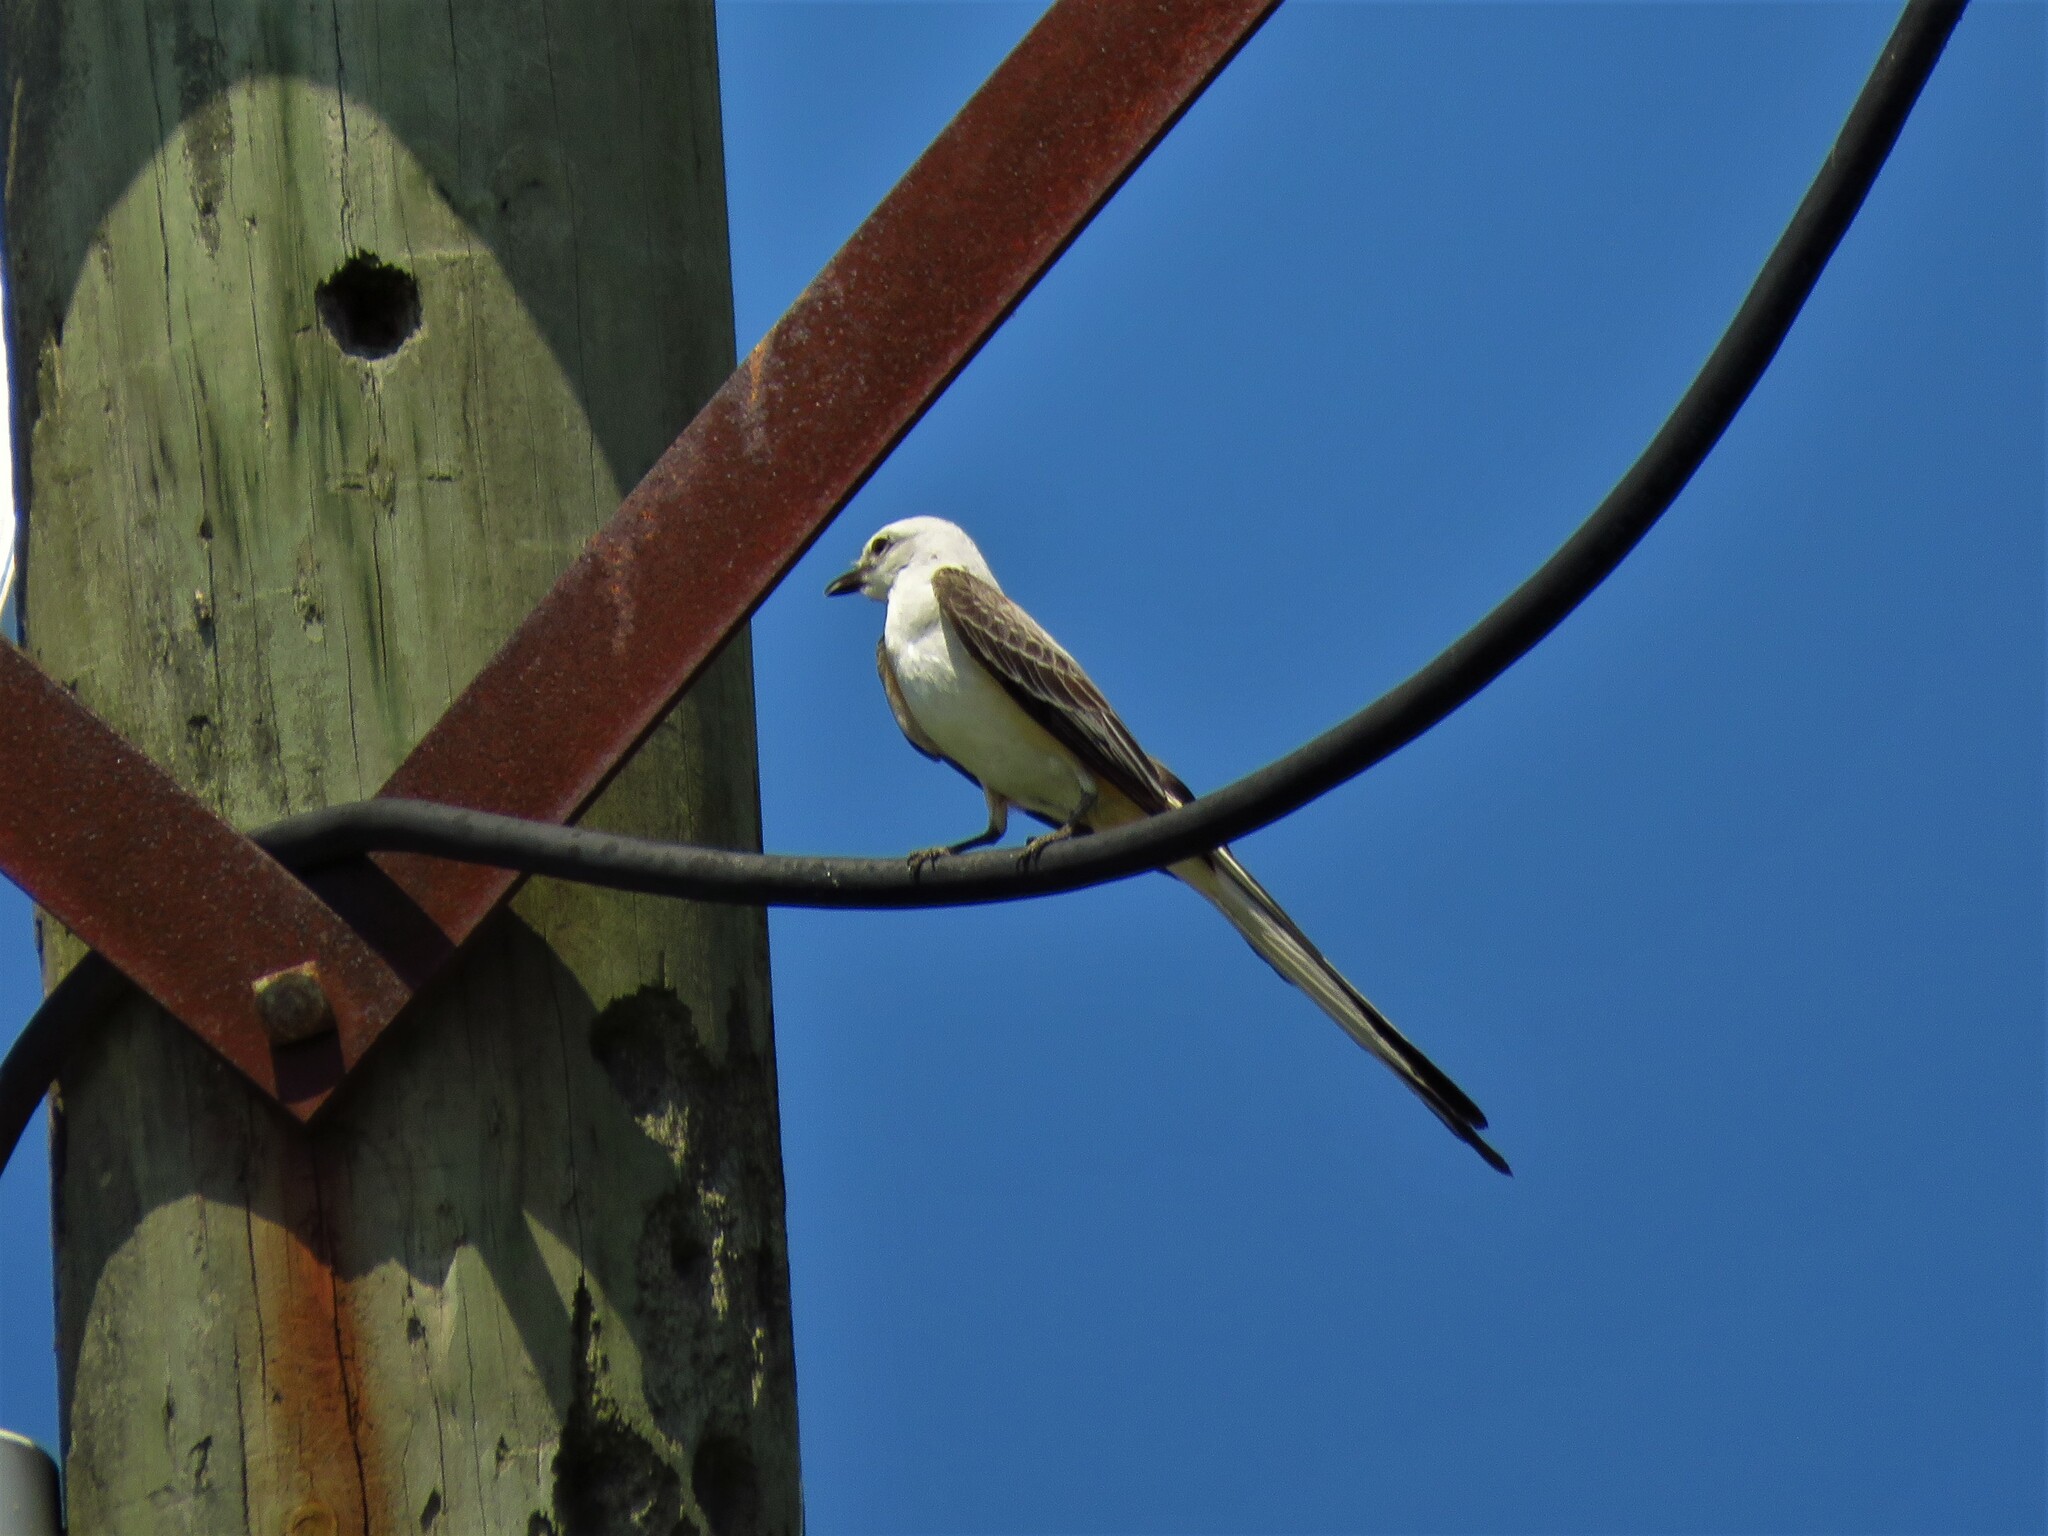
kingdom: Animalia
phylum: Chordata
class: Aves
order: Passeriformes
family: Tyrannidae
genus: Tyrannus
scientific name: Tyrannus forficatus
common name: Scissor-tailed flycatcher
